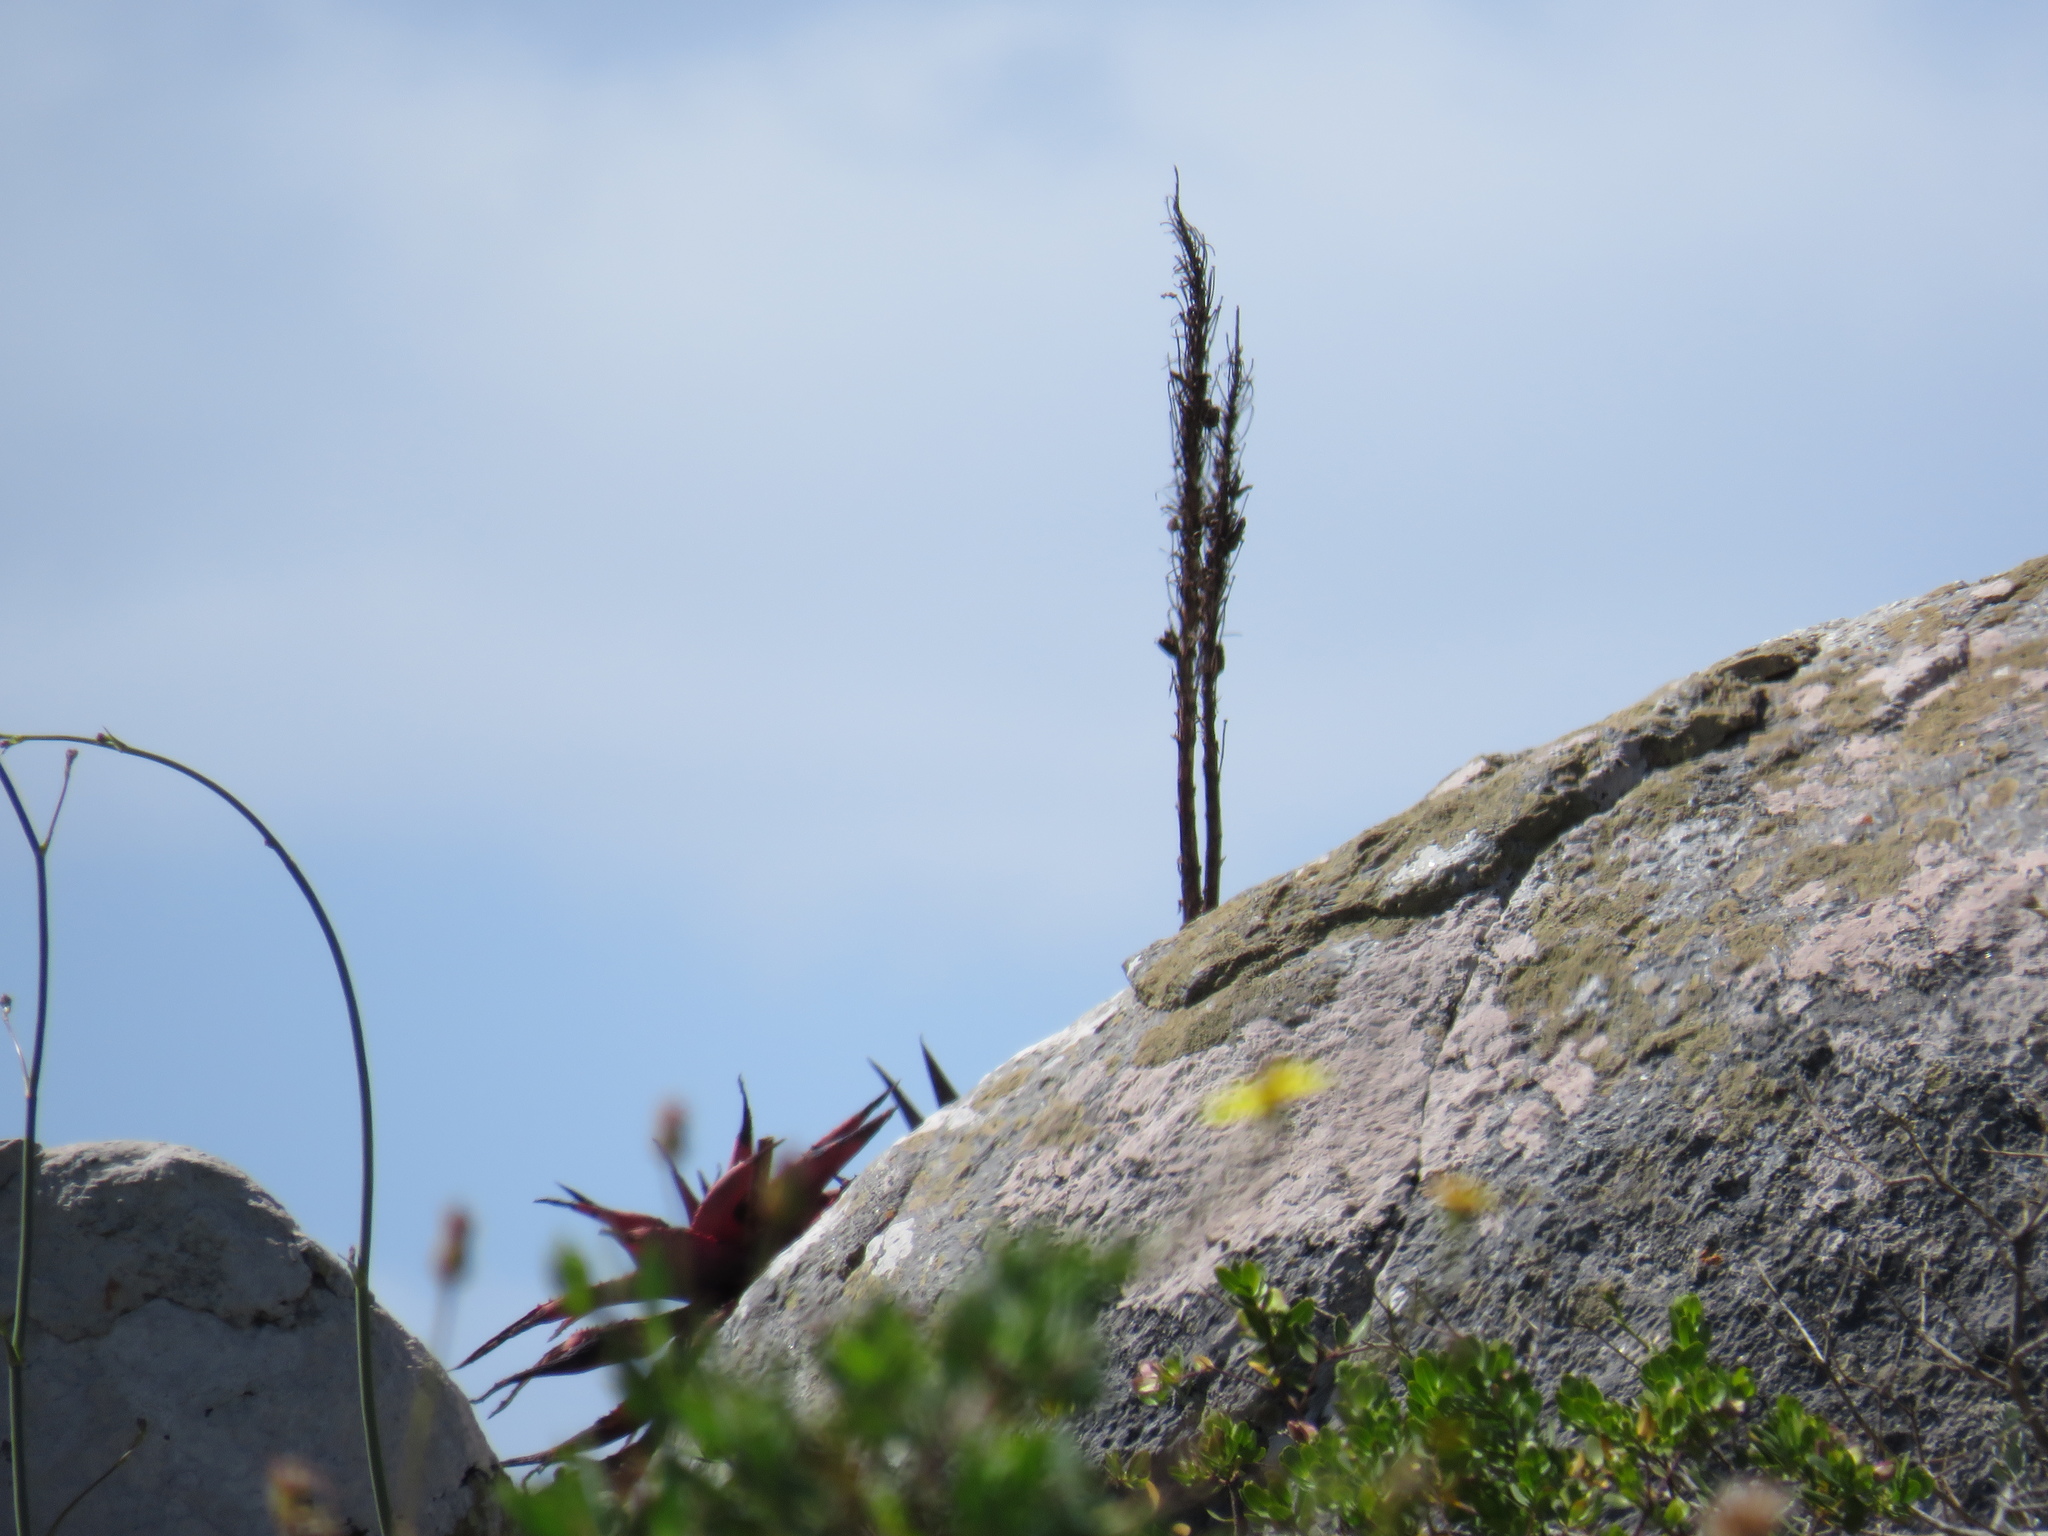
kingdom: Plantae
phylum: Tracheophyta
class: Liliopsida
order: Asparagales
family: Asphodelaceae
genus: Aloe
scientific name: Aloe microstigma
